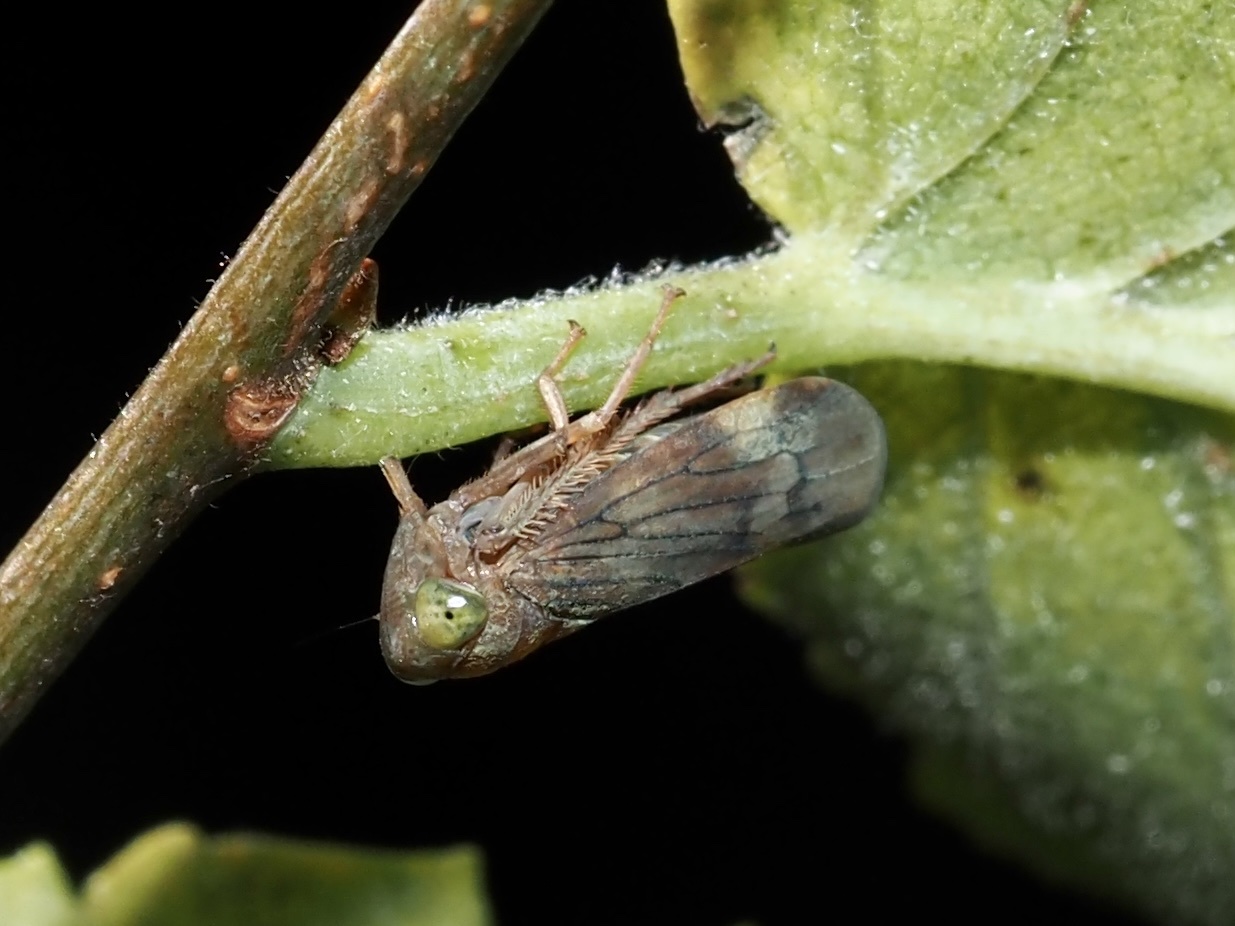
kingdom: Animalia
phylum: Arthropoda
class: Insecta
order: Hemiptera
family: Cicadellidae
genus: Jikradia
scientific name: Jikradia olitoria
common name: Coppery leafhopper
